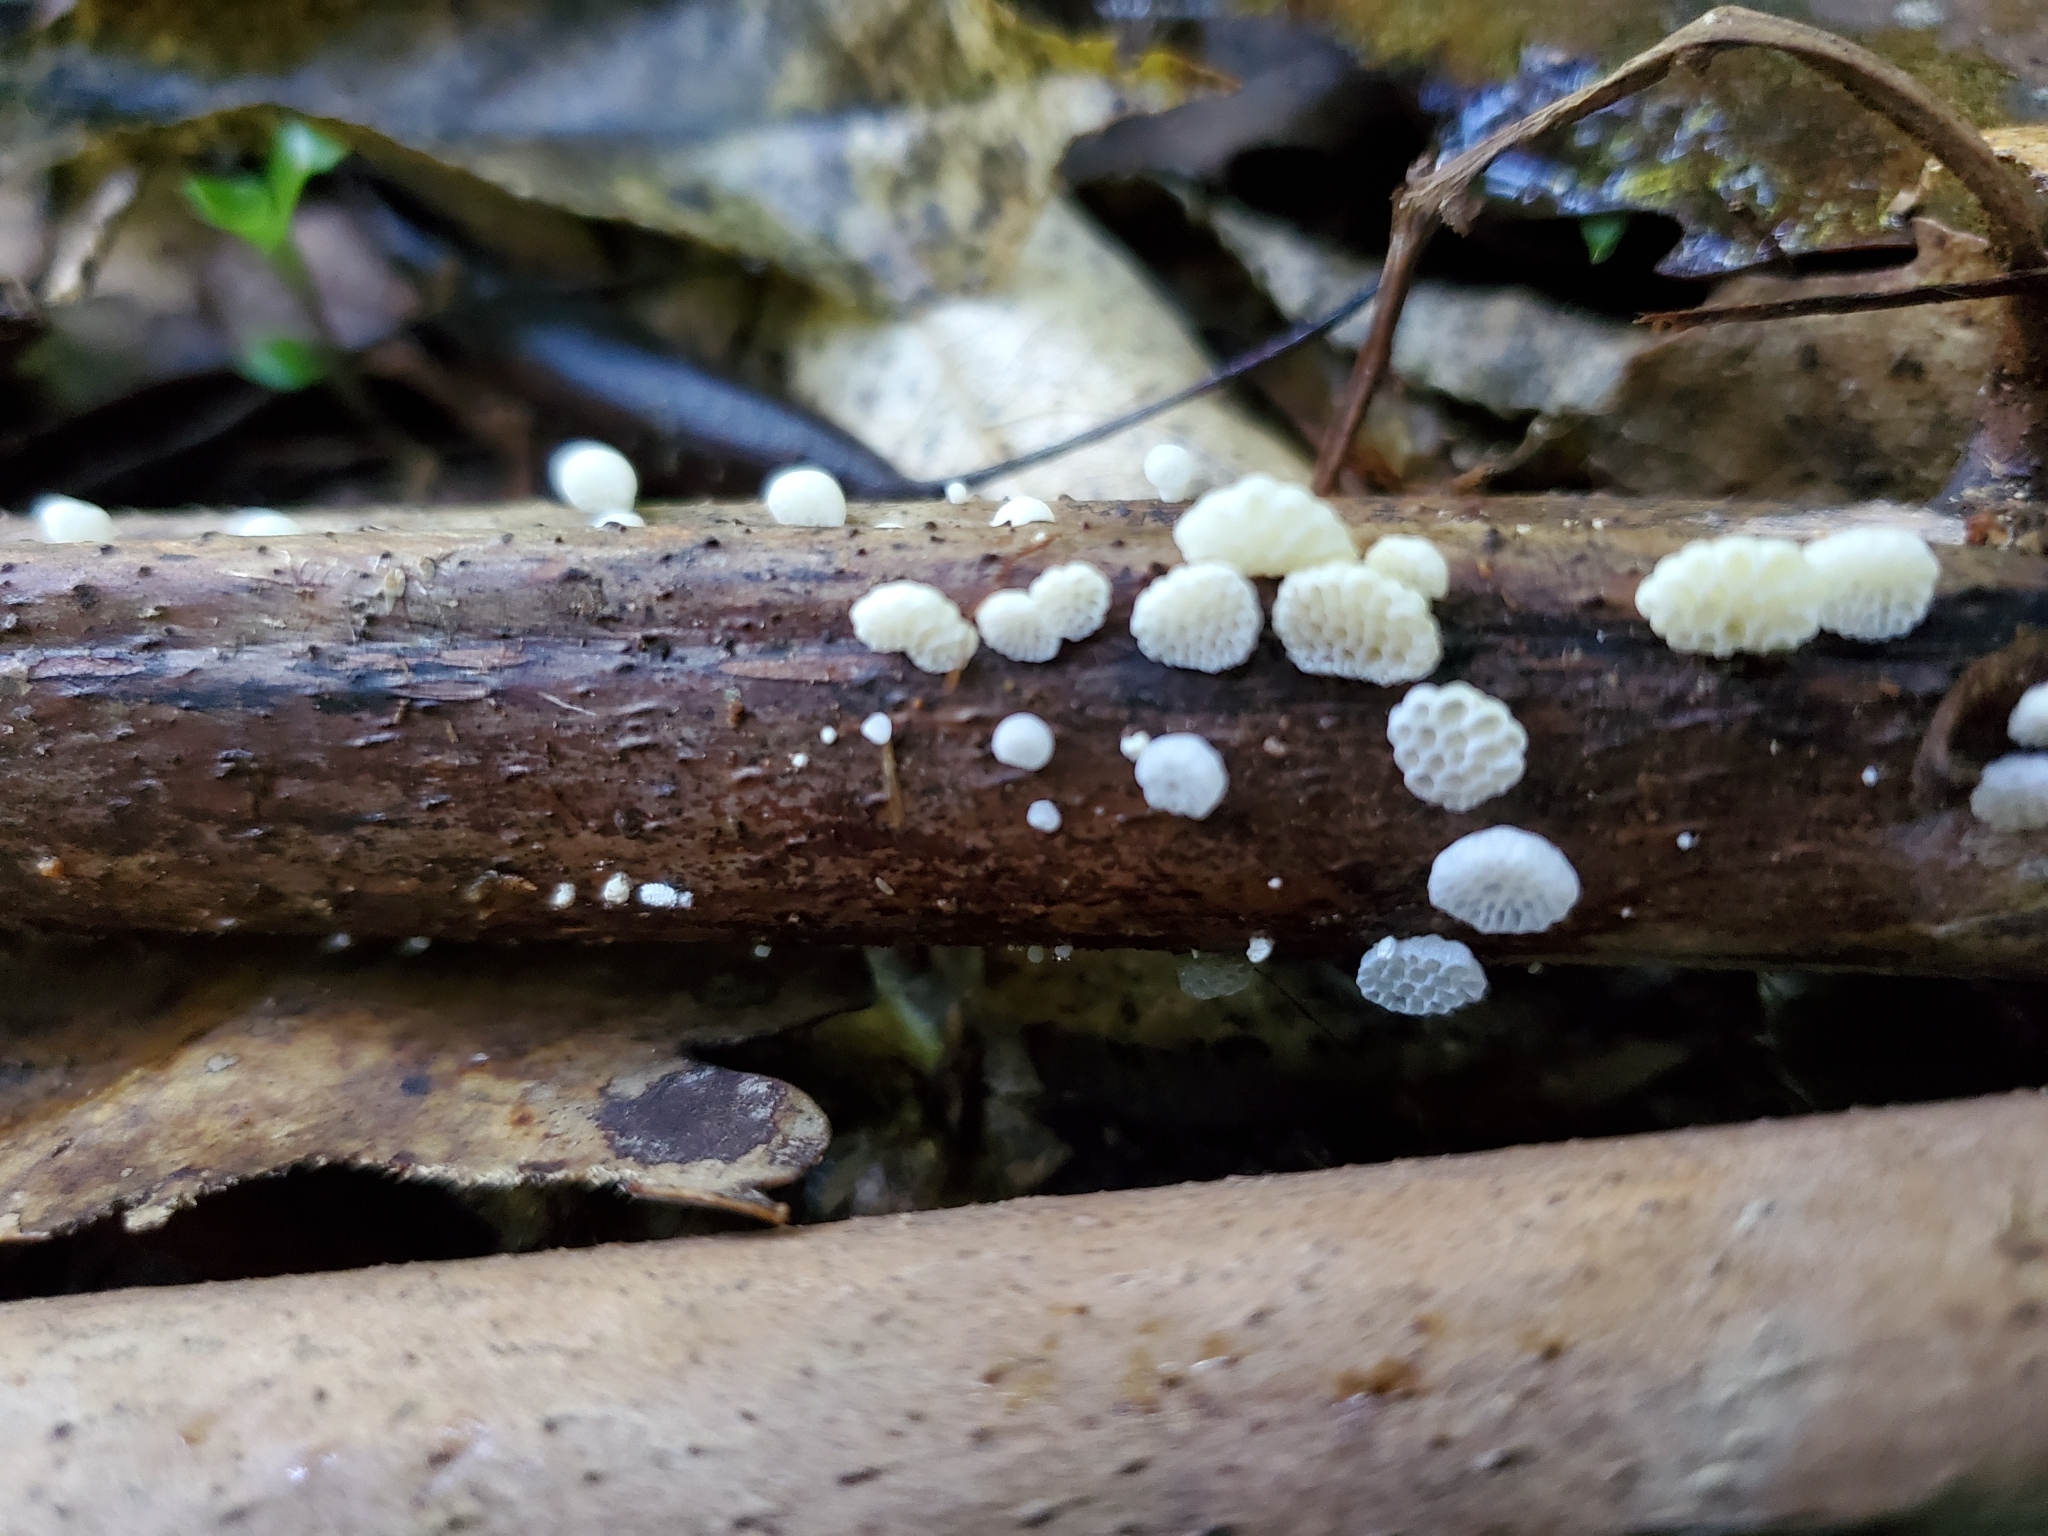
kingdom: Fungi
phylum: Basidiomycota
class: Agaricomycetes
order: Agaricales
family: Mycenaceae
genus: Favolaschia
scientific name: Favolaschia cyatheae
